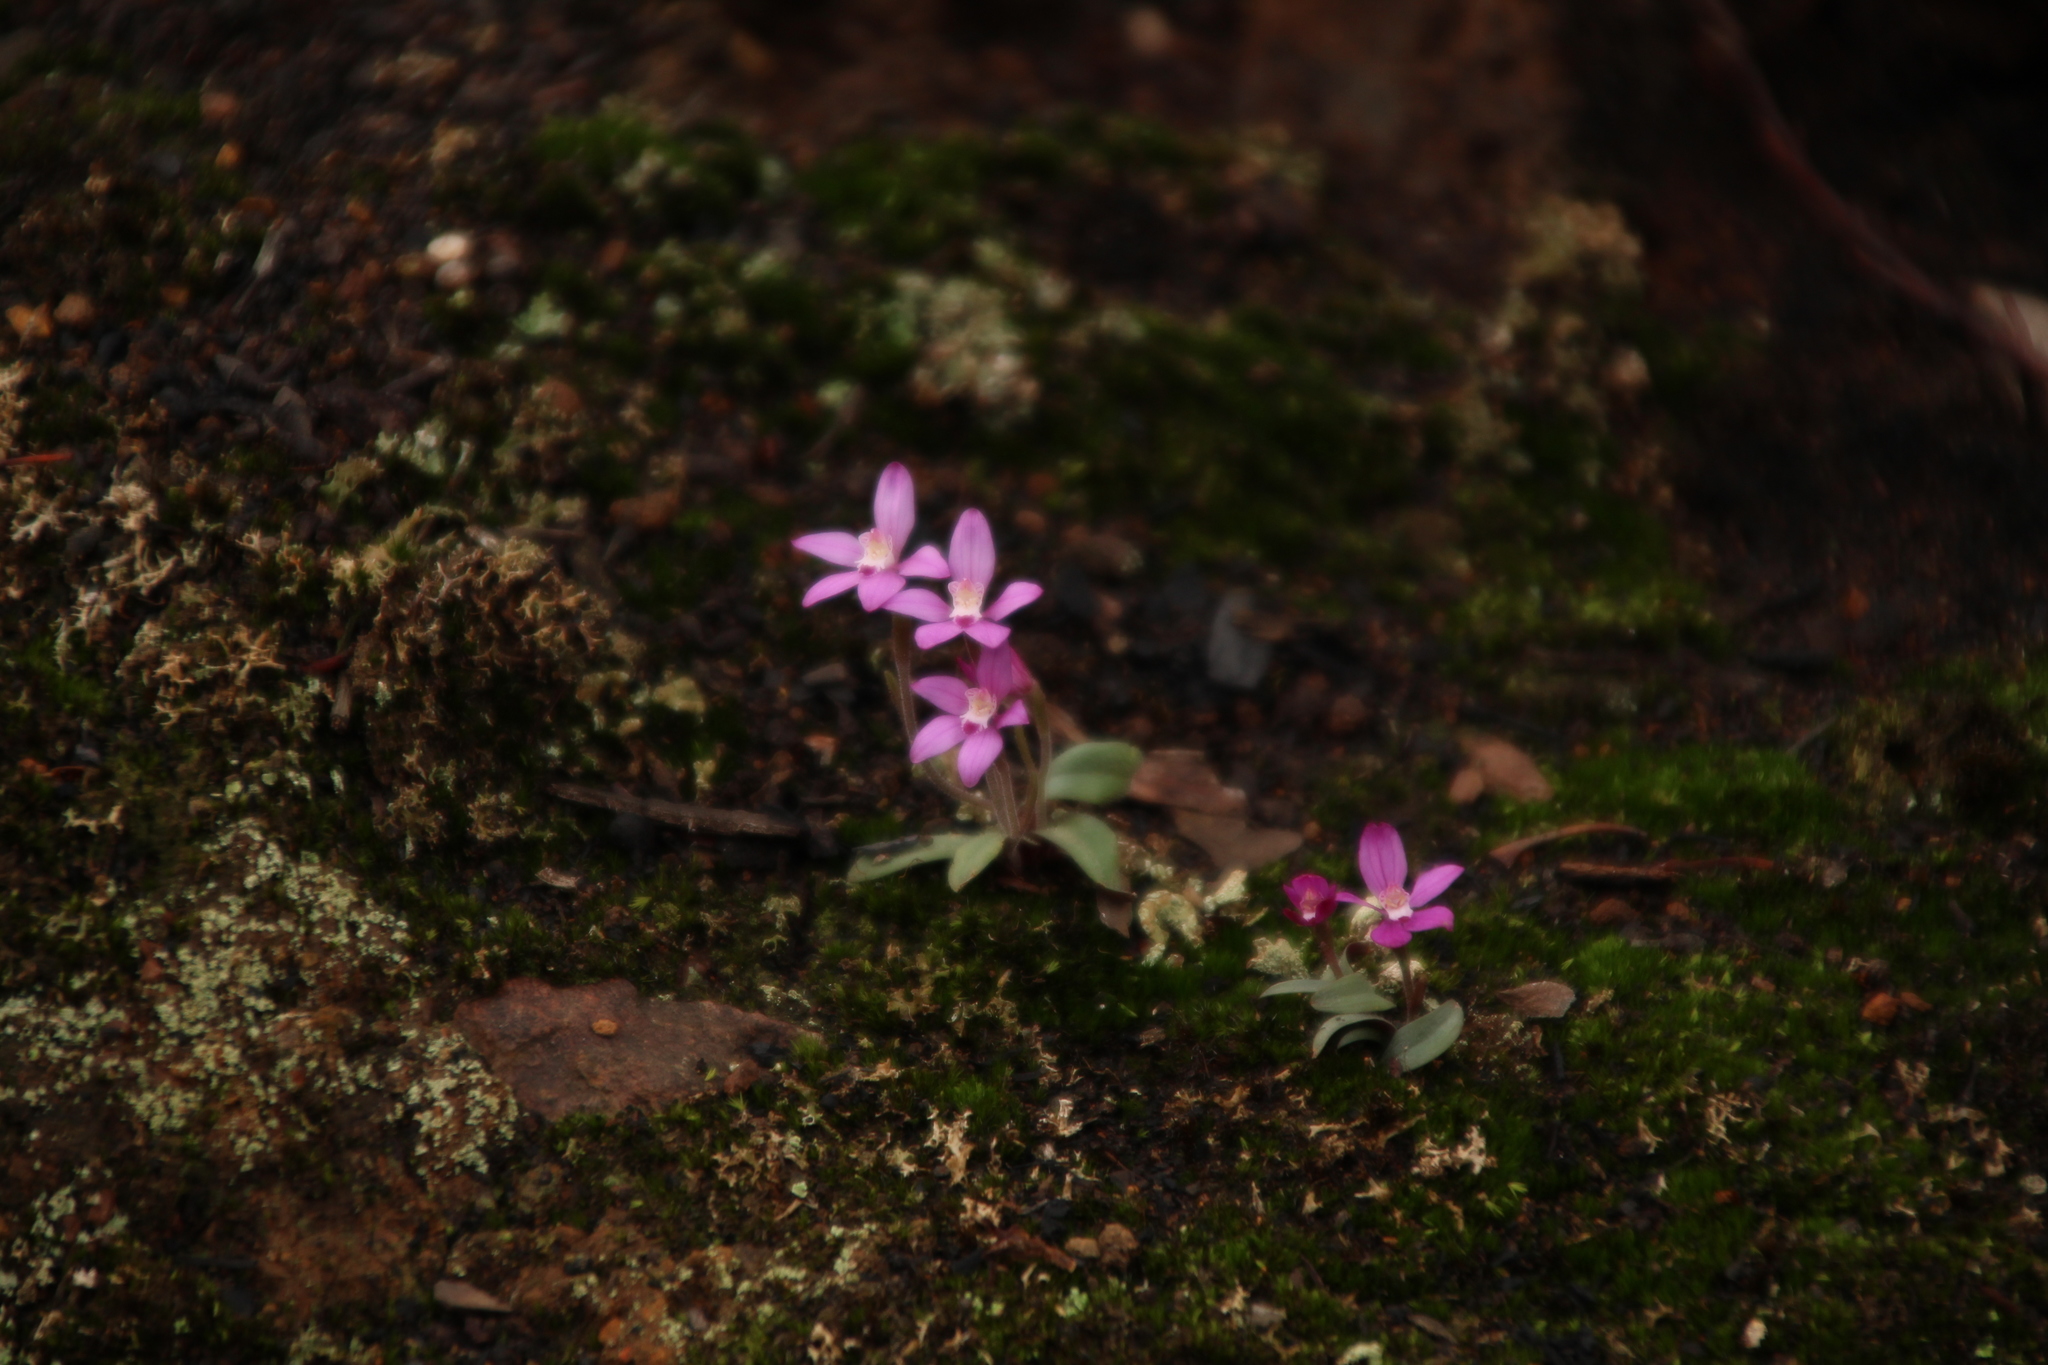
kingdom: Plantae
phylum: Tracheophyta
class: Liliopsida
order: Asparagales
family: Orchidaceae
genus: Caladenia
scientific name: Caladenia reptans
